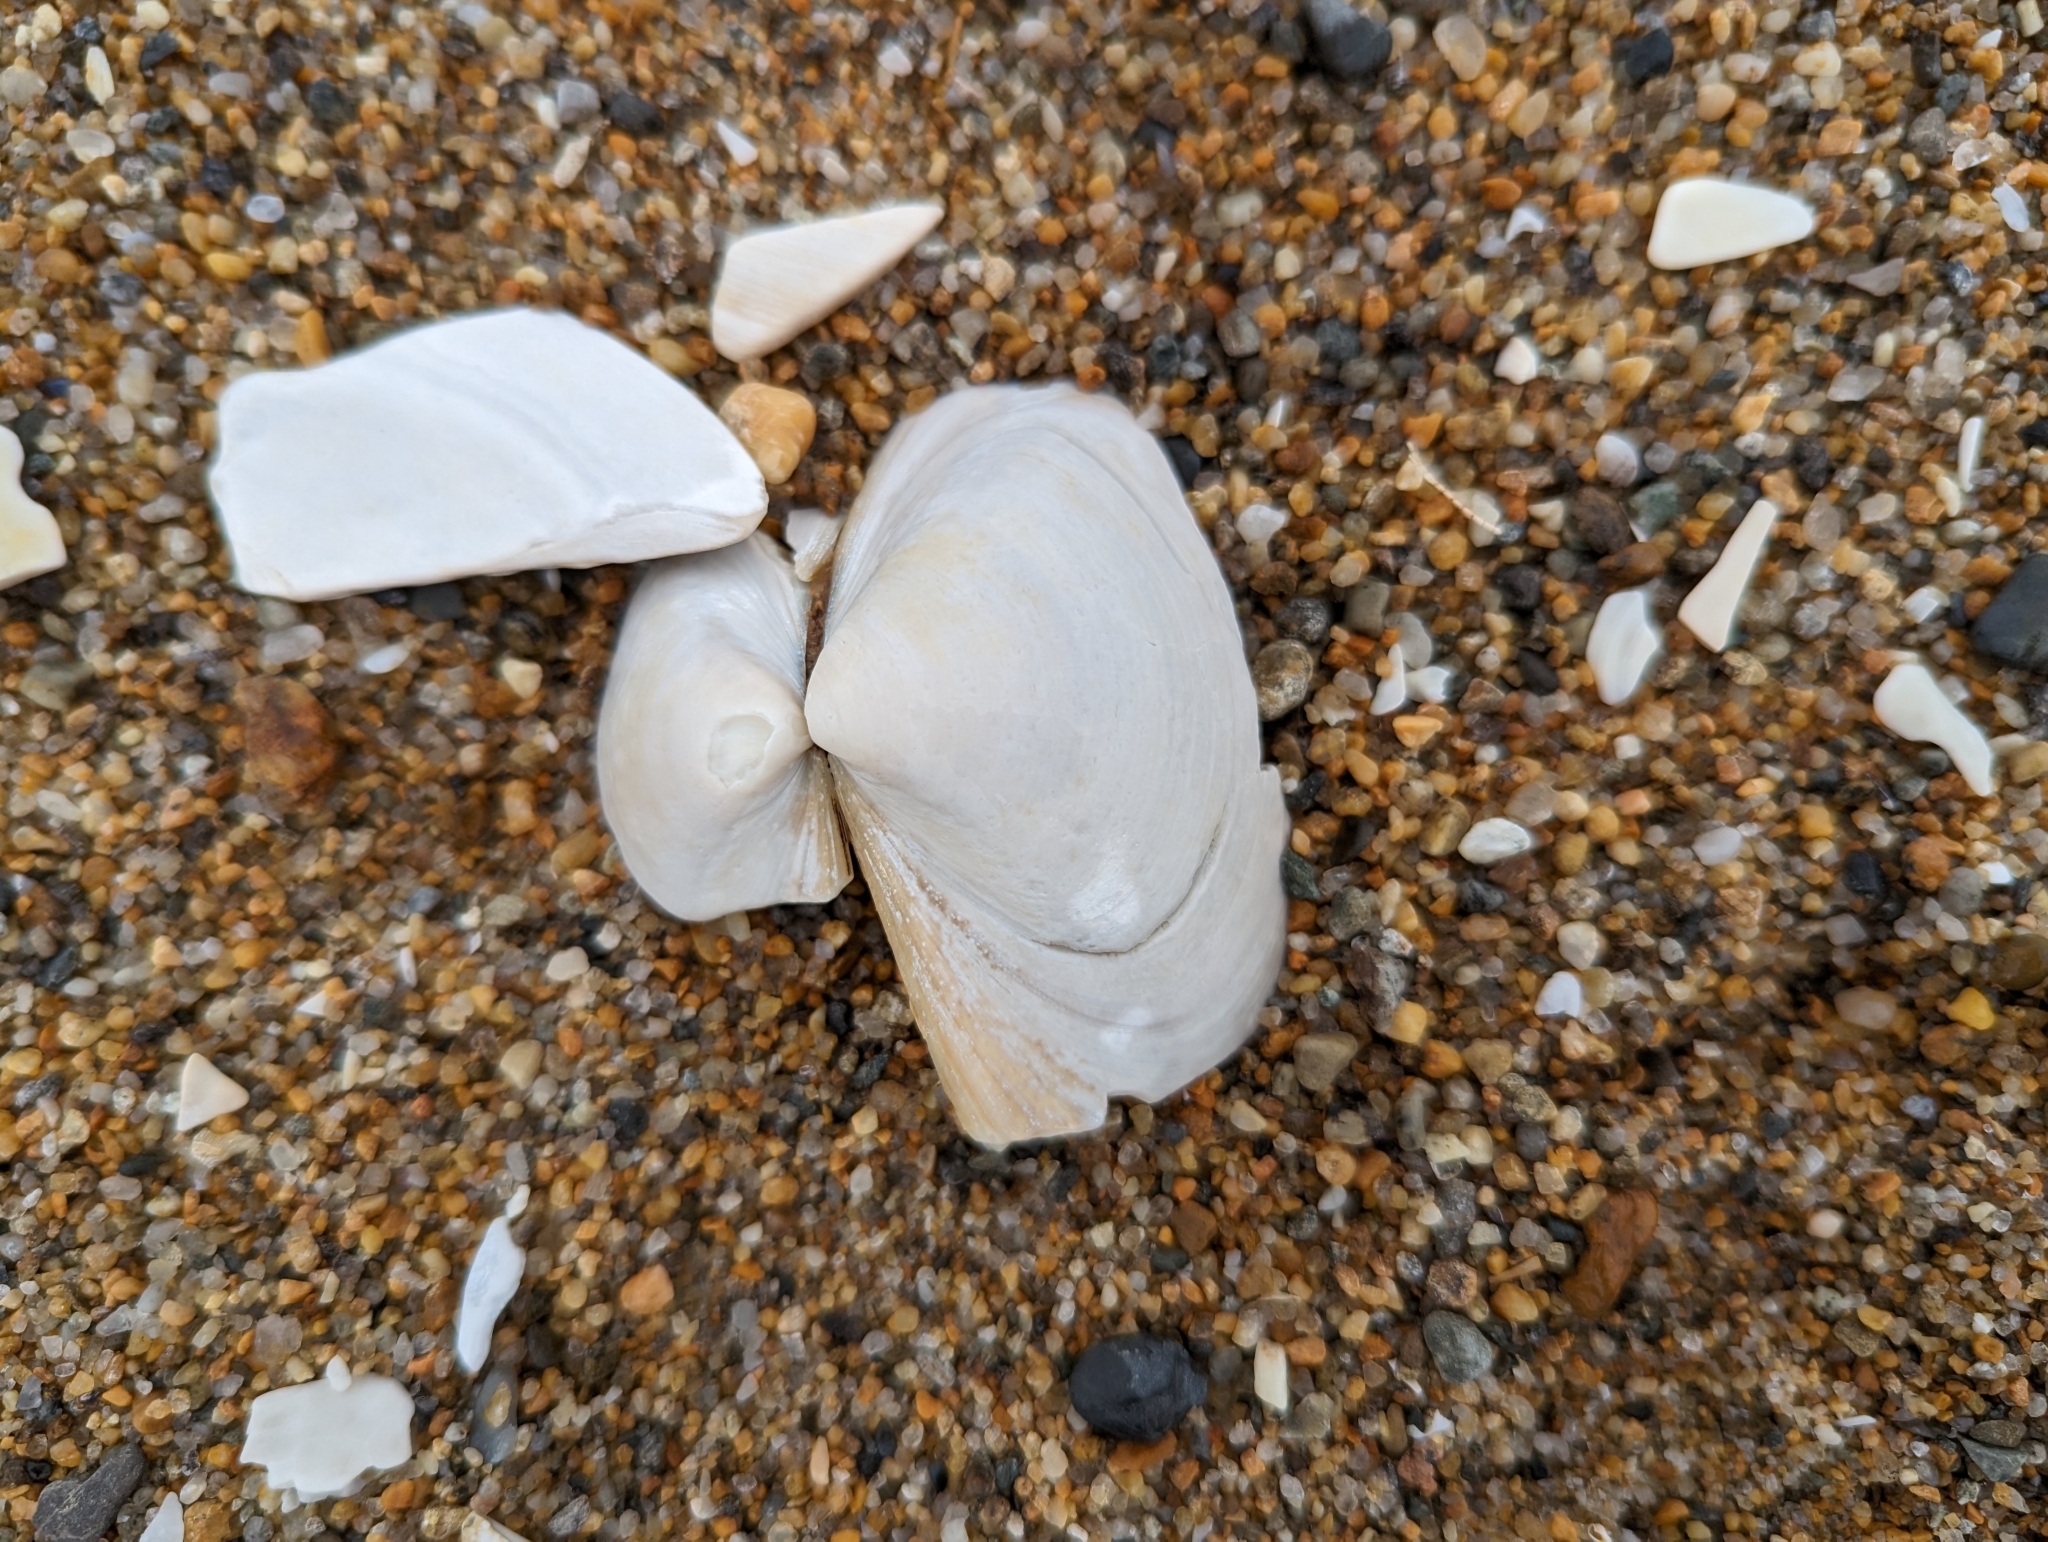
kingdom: Animalia
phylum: Mollusca
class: Bivalvia
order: Venerida
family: Mactridae
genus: Spisula
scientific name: Spisula solidissima
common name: Atlantic surf clam
